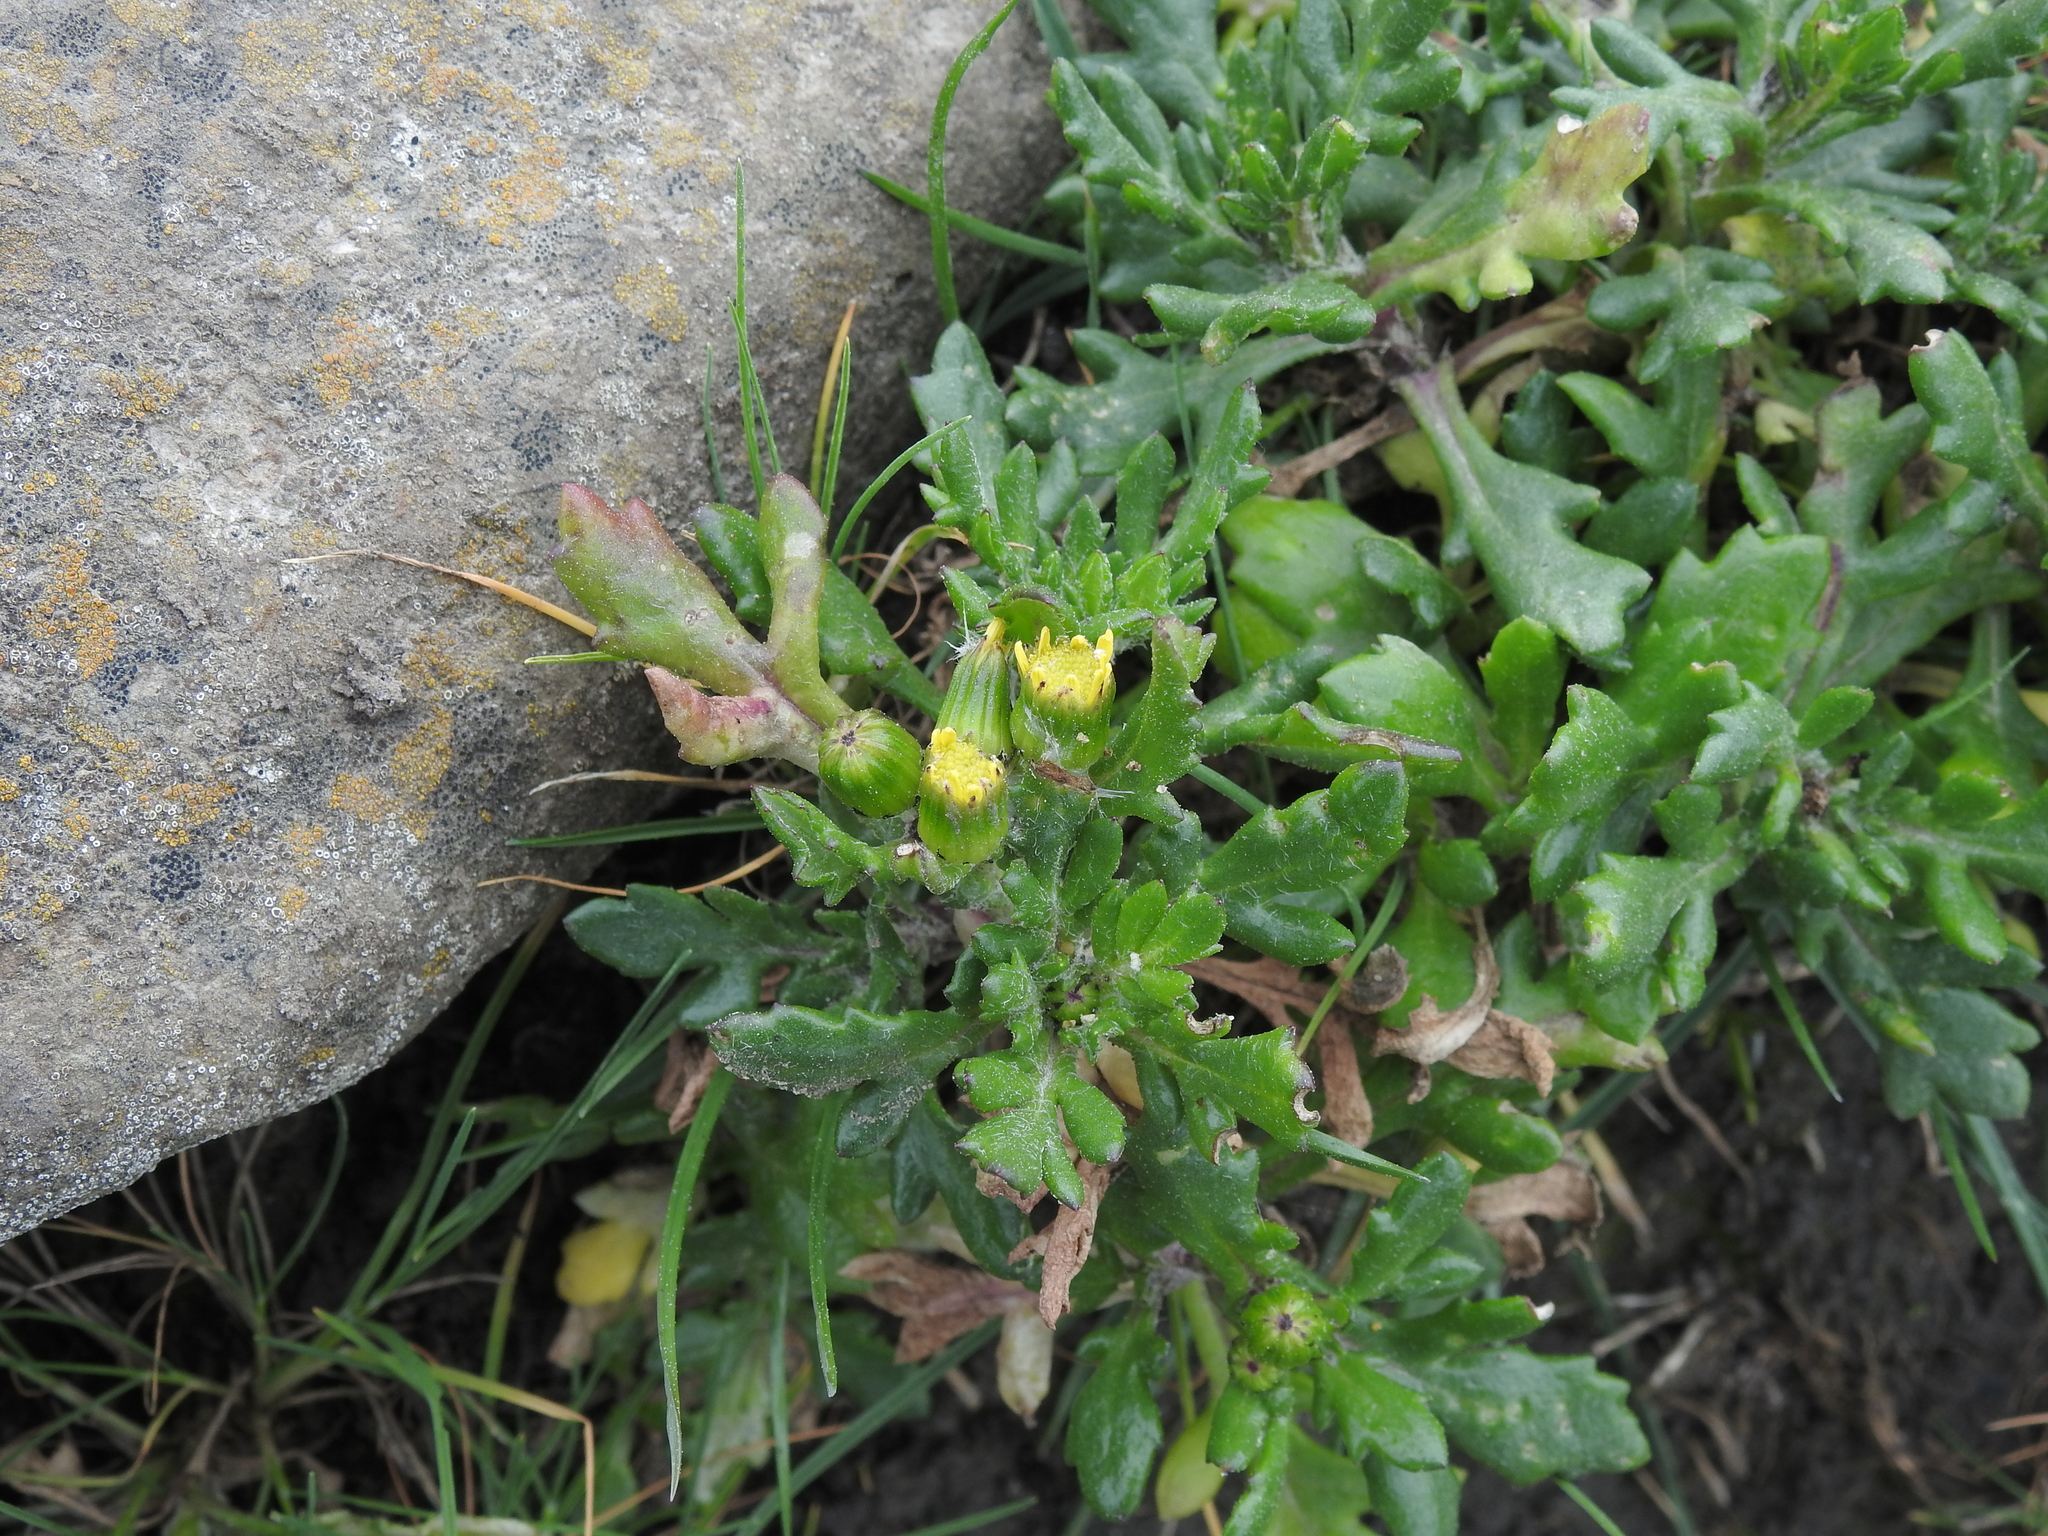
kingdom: Plantae
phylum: Tracheophyta
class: Magnoliopsida
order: Asterales
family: Asteraceae
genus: Senecio
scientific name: Senecio vulgaris
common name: Old-man-in-the-spring
